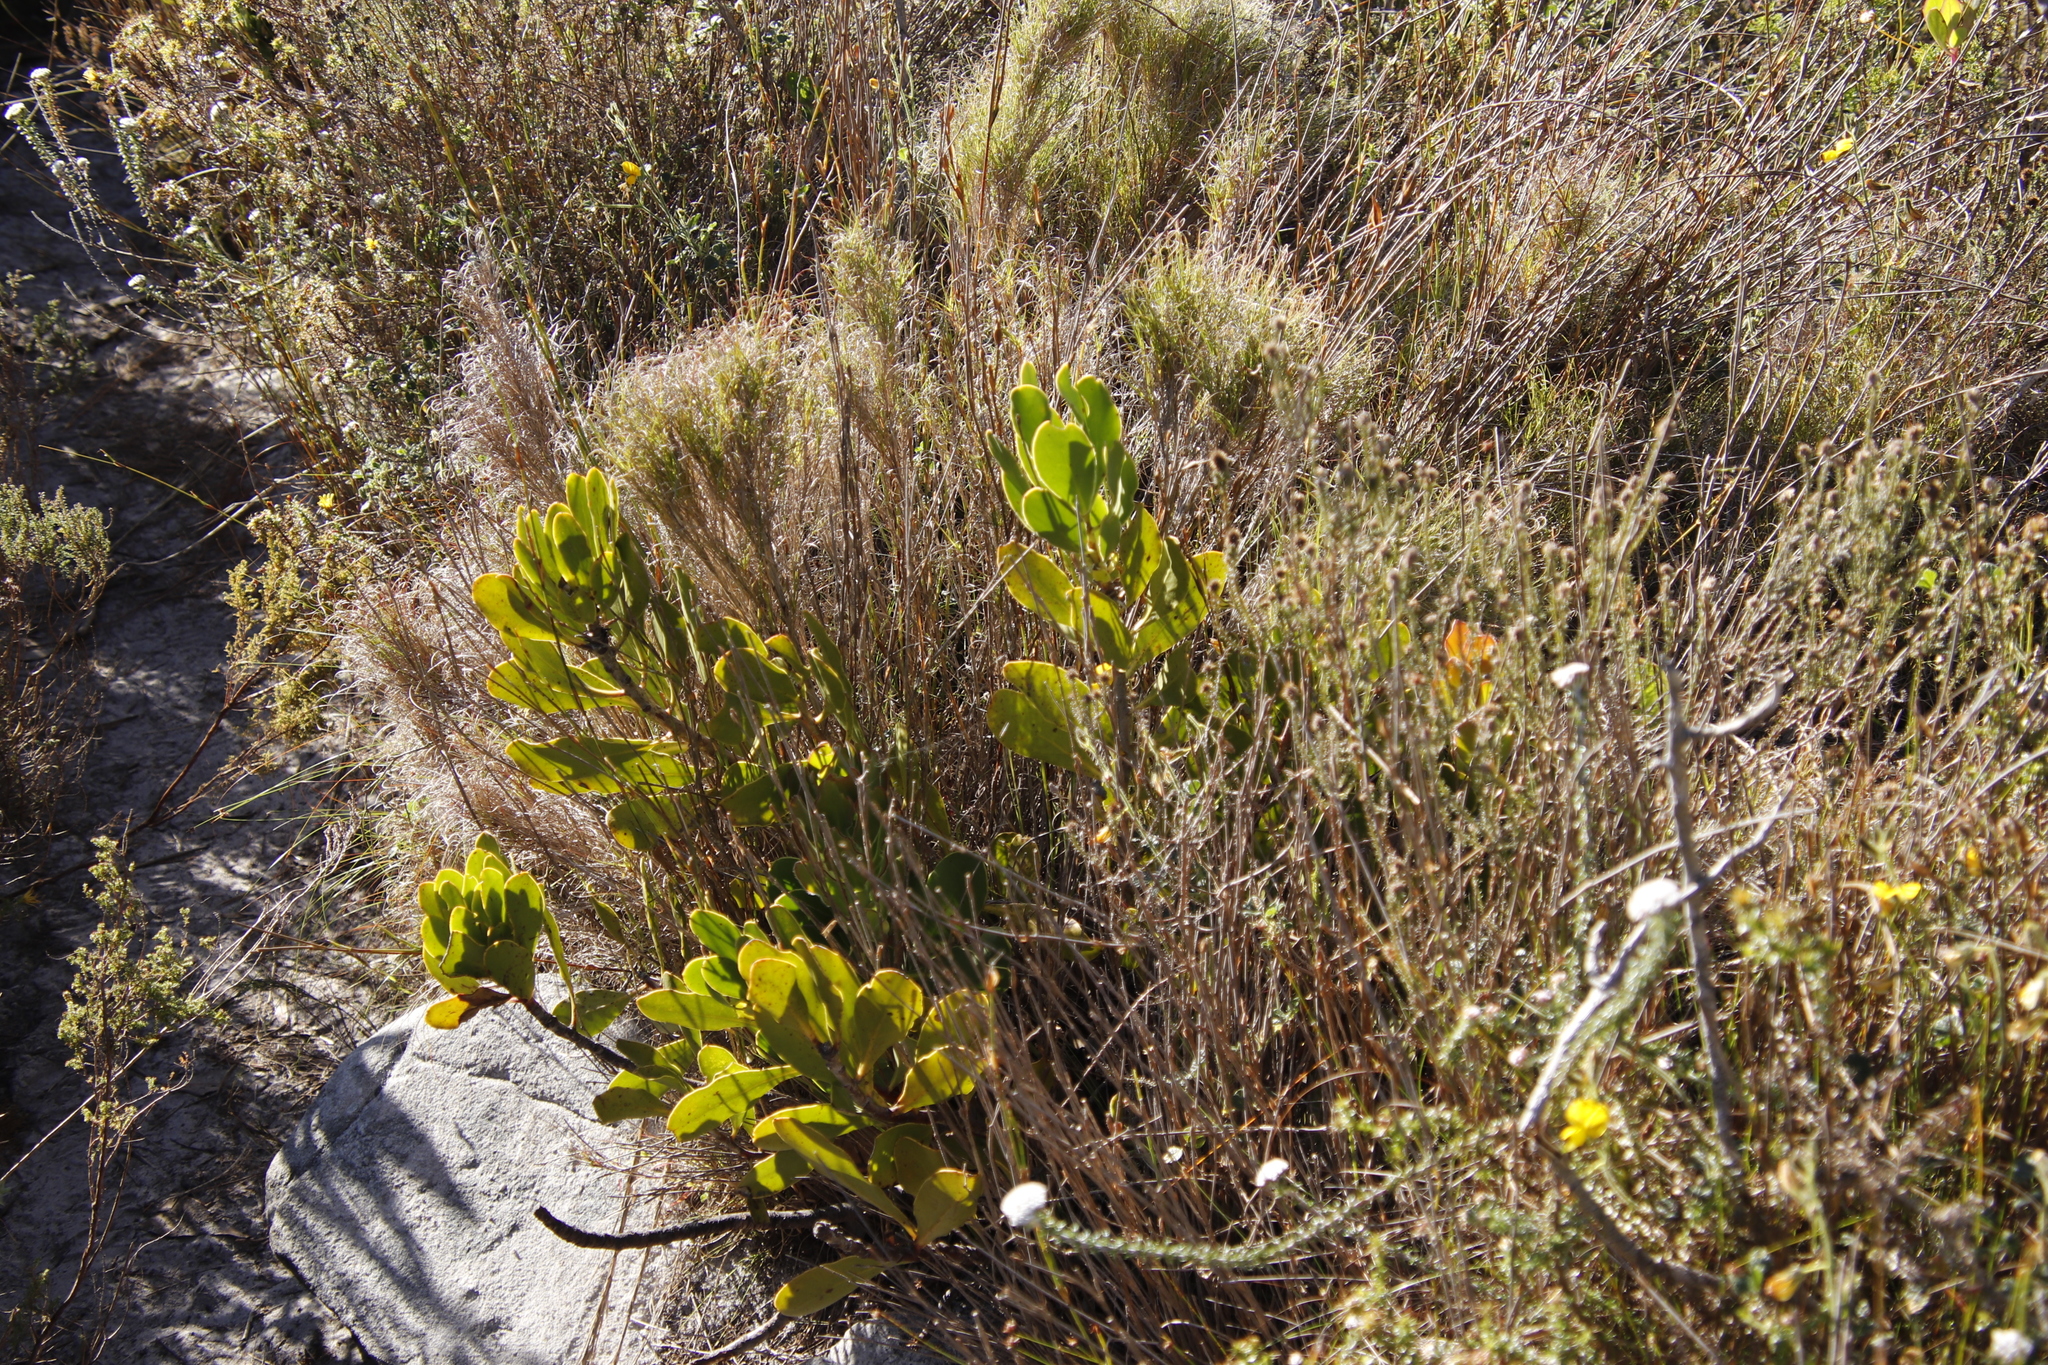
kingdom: Plantae
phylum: Tracheophyta
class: Magnoliopsida
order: Proteales
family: Proteaceae
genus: Protea
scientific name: Protea speciosa
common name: Brown-beard sugarbush
